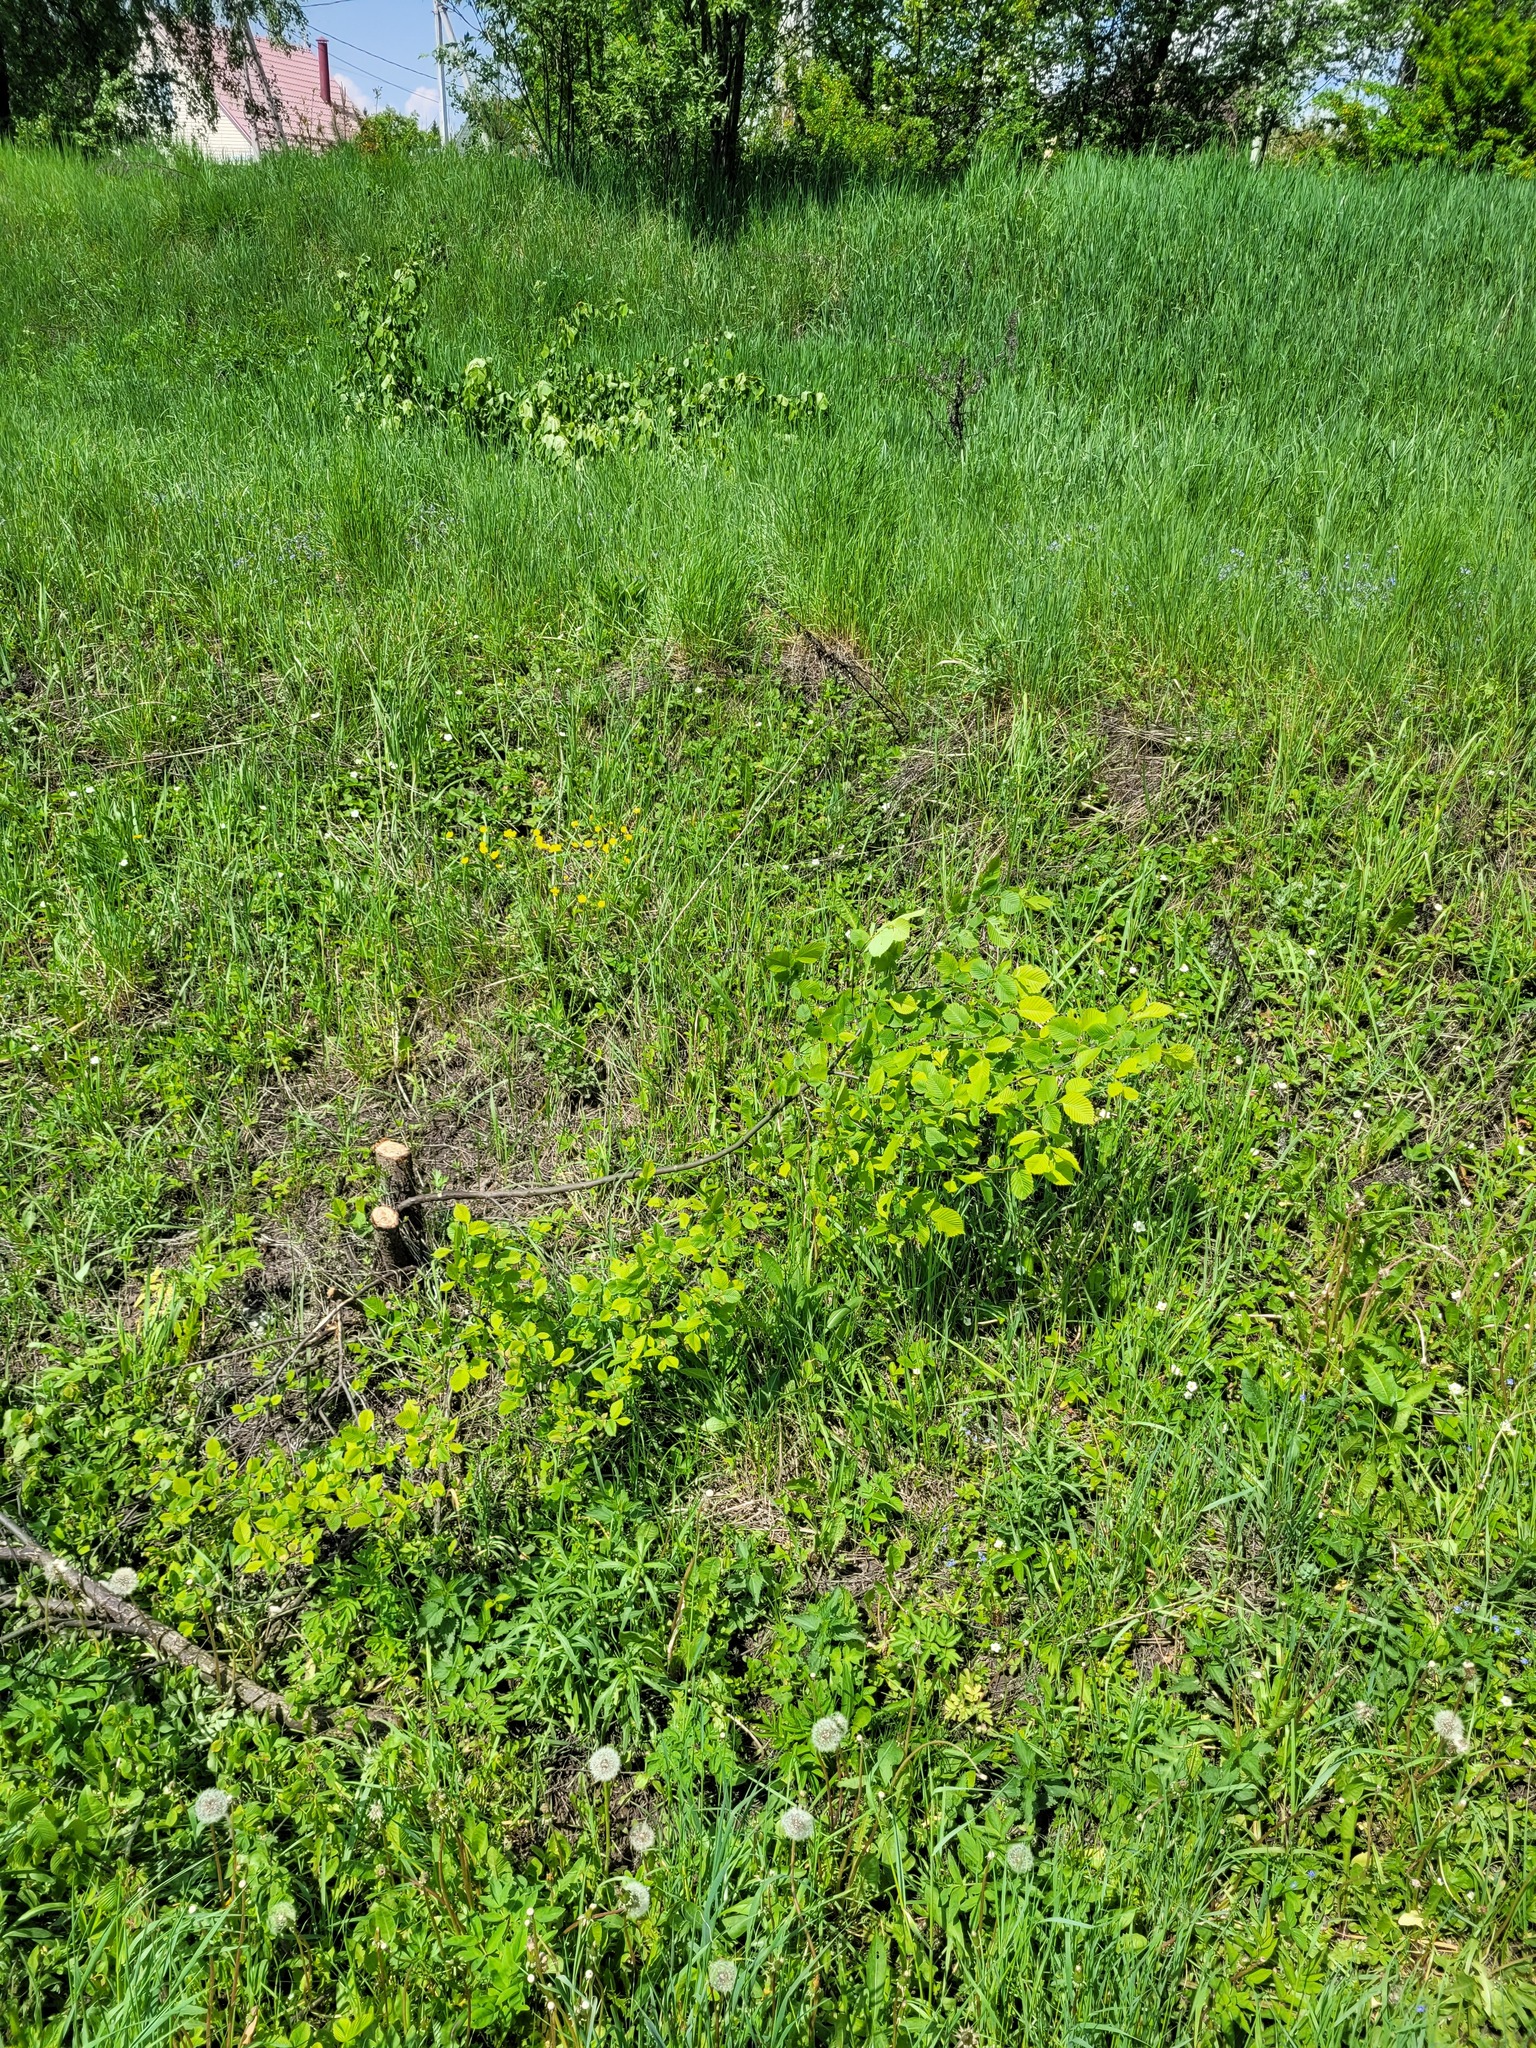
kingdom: Plantae
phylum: Tracheophyta
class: Magnoliopsida
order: Rosales
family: Ulmaceae
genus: Ulmus
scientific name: Ulmus laevis
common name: European white-elm
